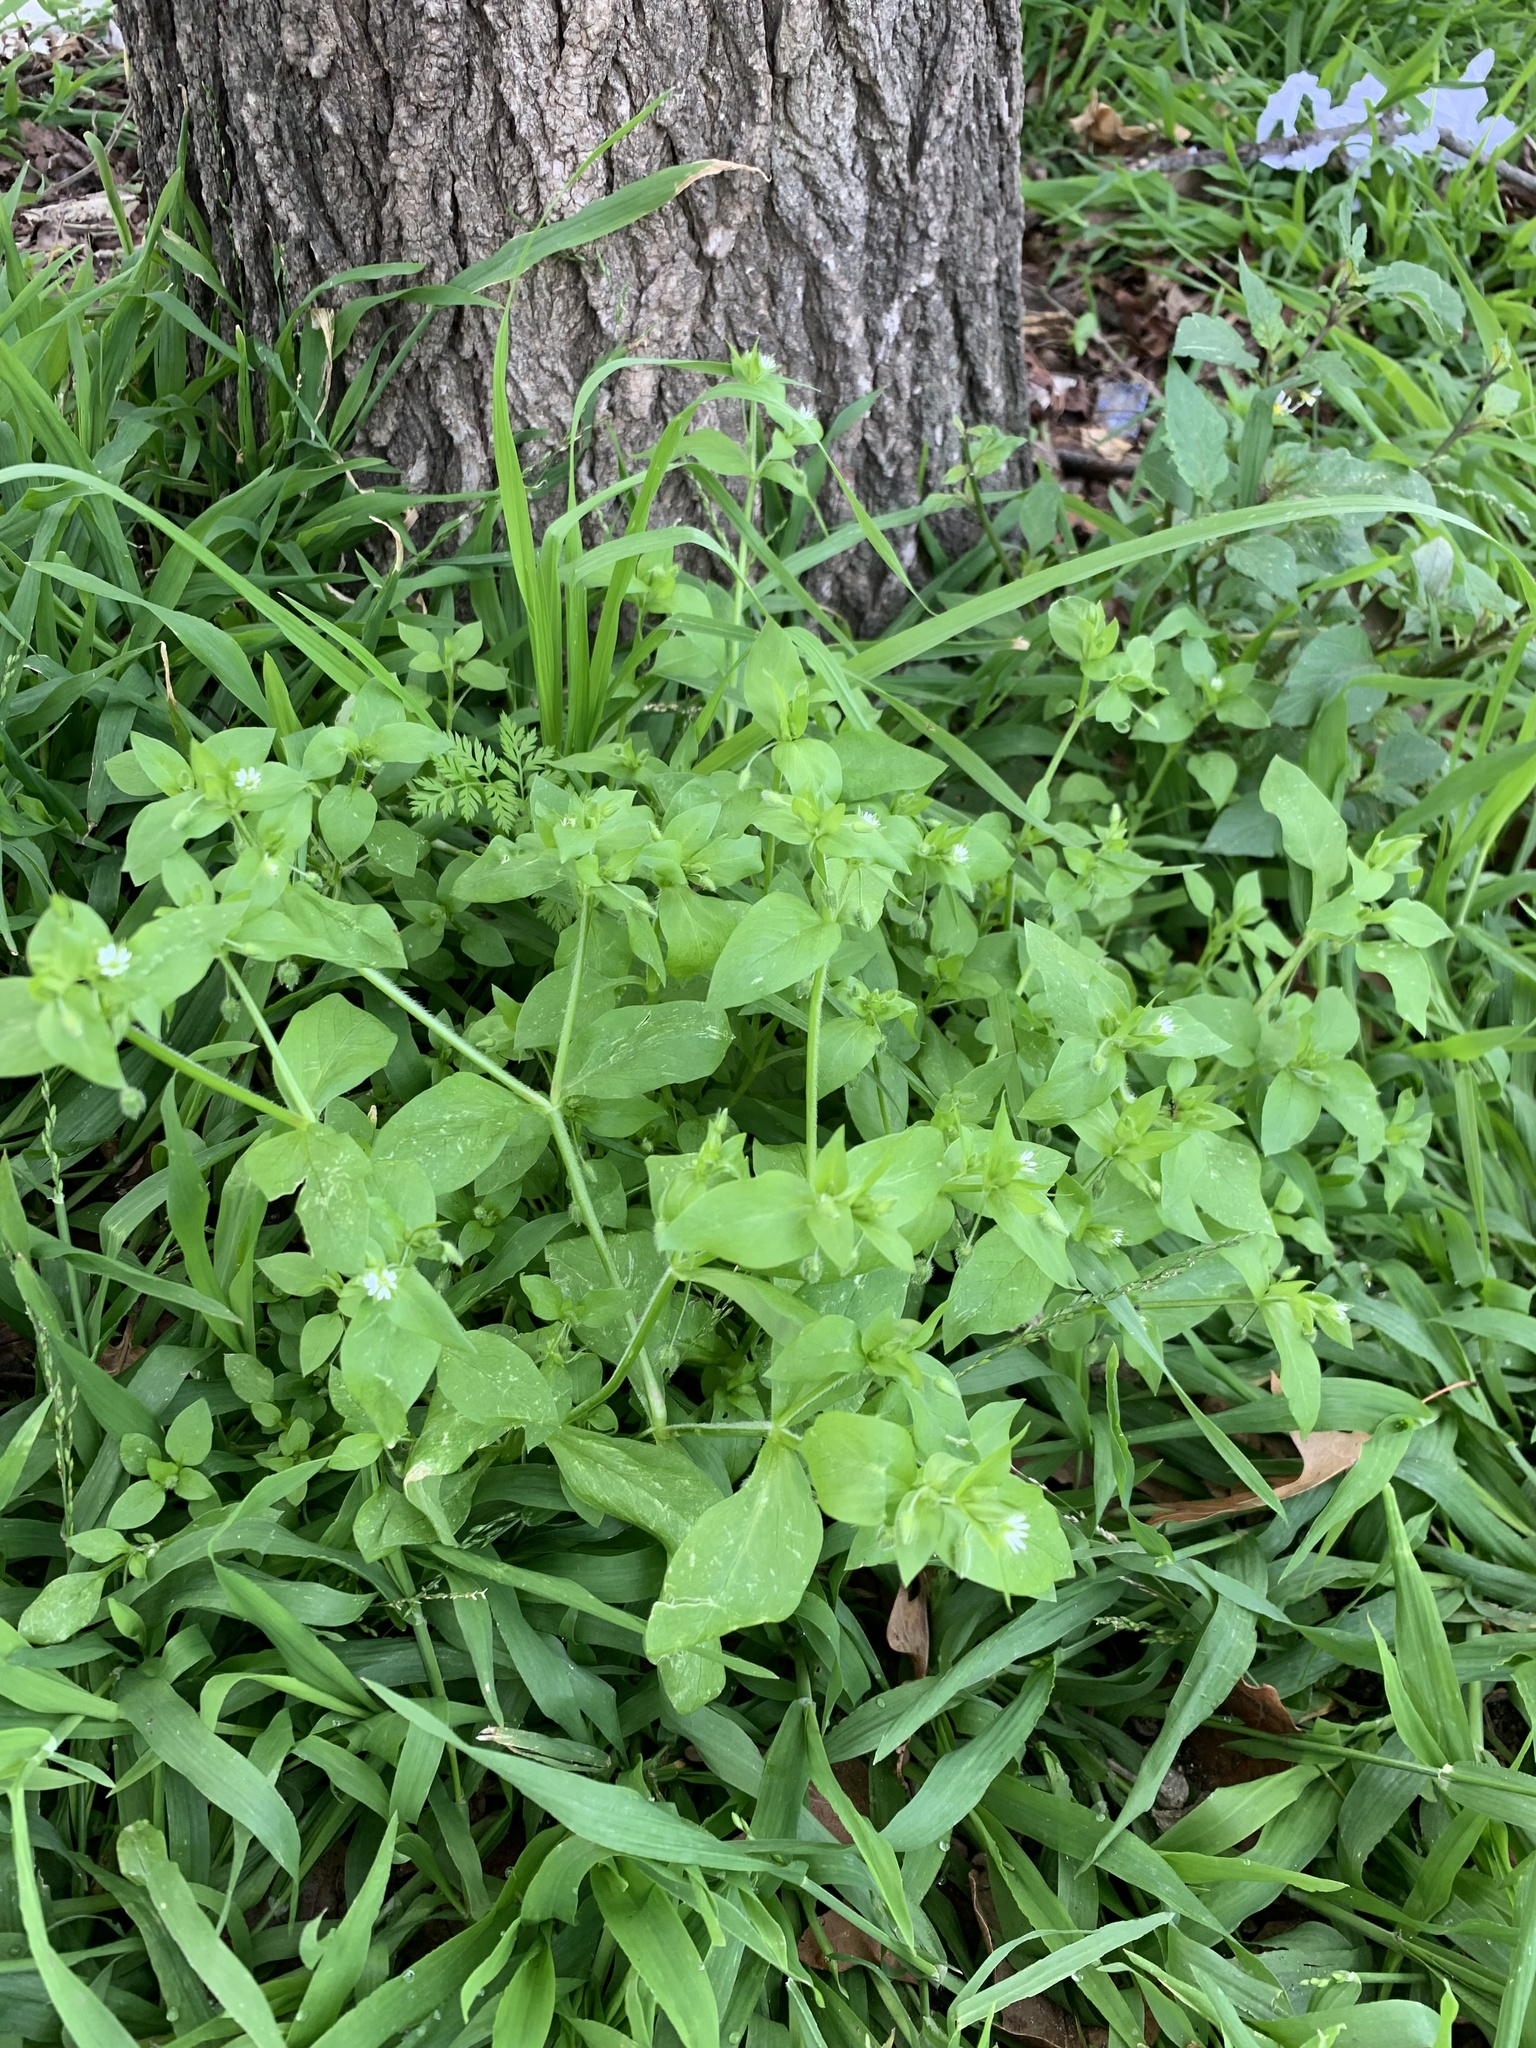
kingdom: Plantae
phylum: Tracheophyta
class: Magnoliopsida
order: Caryophyllales
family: Caryophyllaceae
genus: Stellaria
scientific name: Stellaria media
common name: Common chickweed
